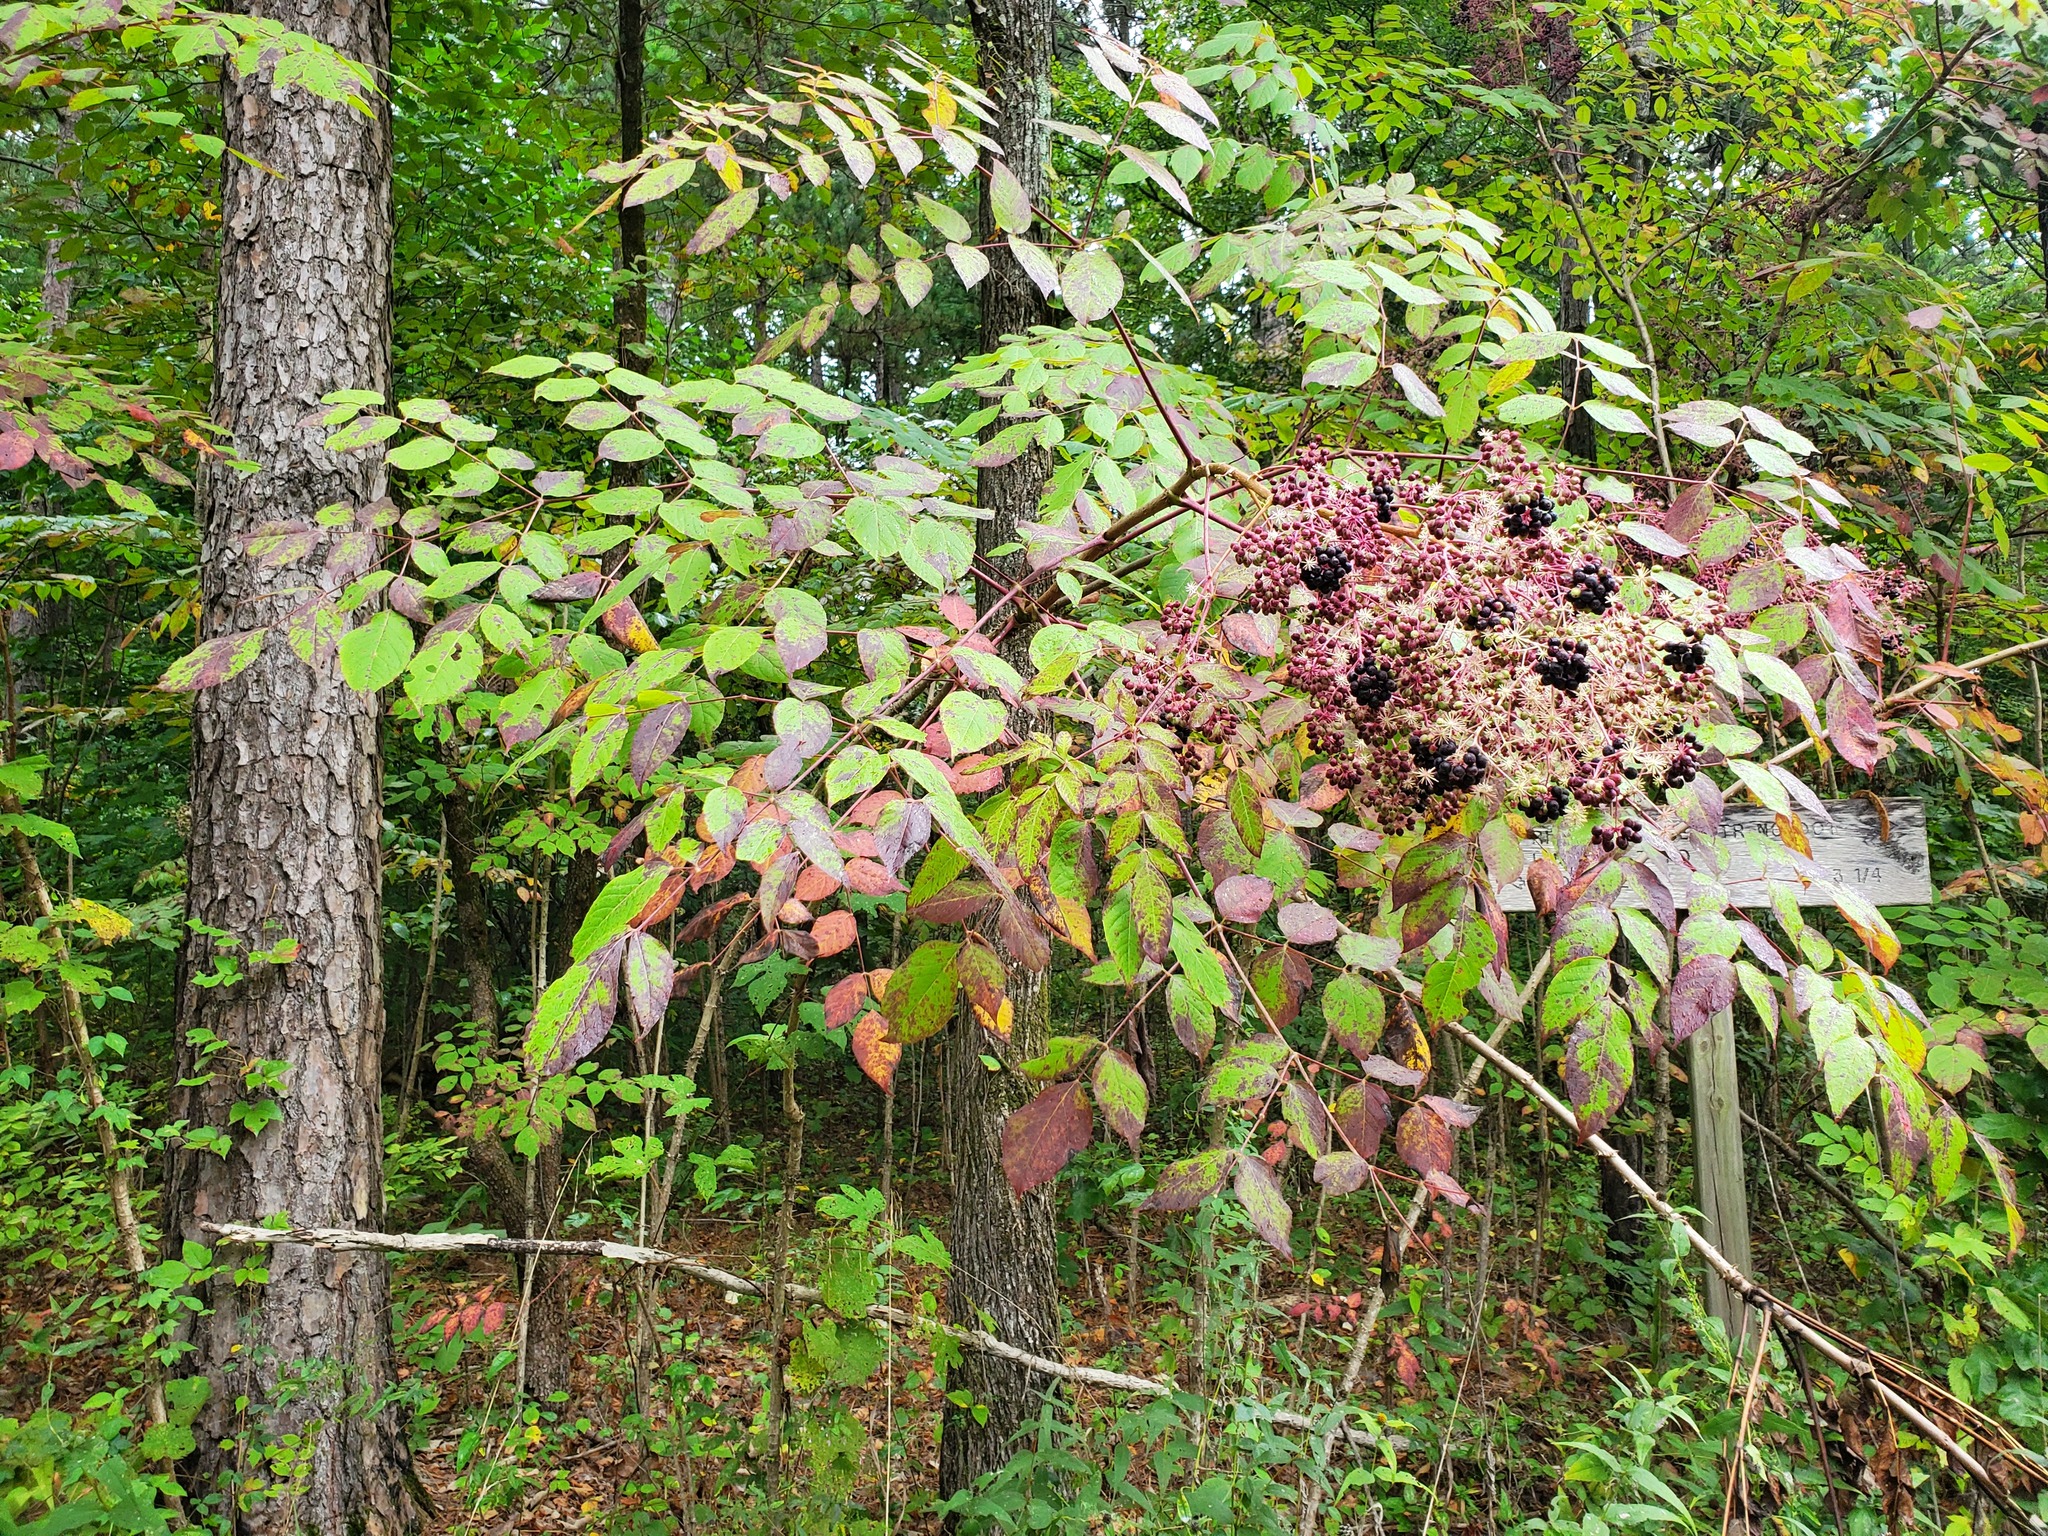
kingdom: Plantae
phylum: Tracheophyta
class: Magnoliopsida
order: Apiales
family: Araliaceae
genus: Aralia
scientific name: Aralia spinosa
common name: Hercules'-club
